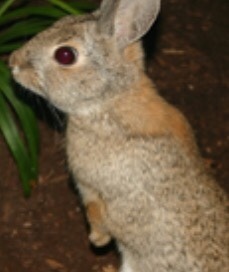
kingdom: Animalia
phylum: Chordata
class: Mammalia
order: Lagomorpha
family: Leporidae
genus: Sylvilagus
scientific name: Sylvilagus audubonii
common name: Desert cottontail
